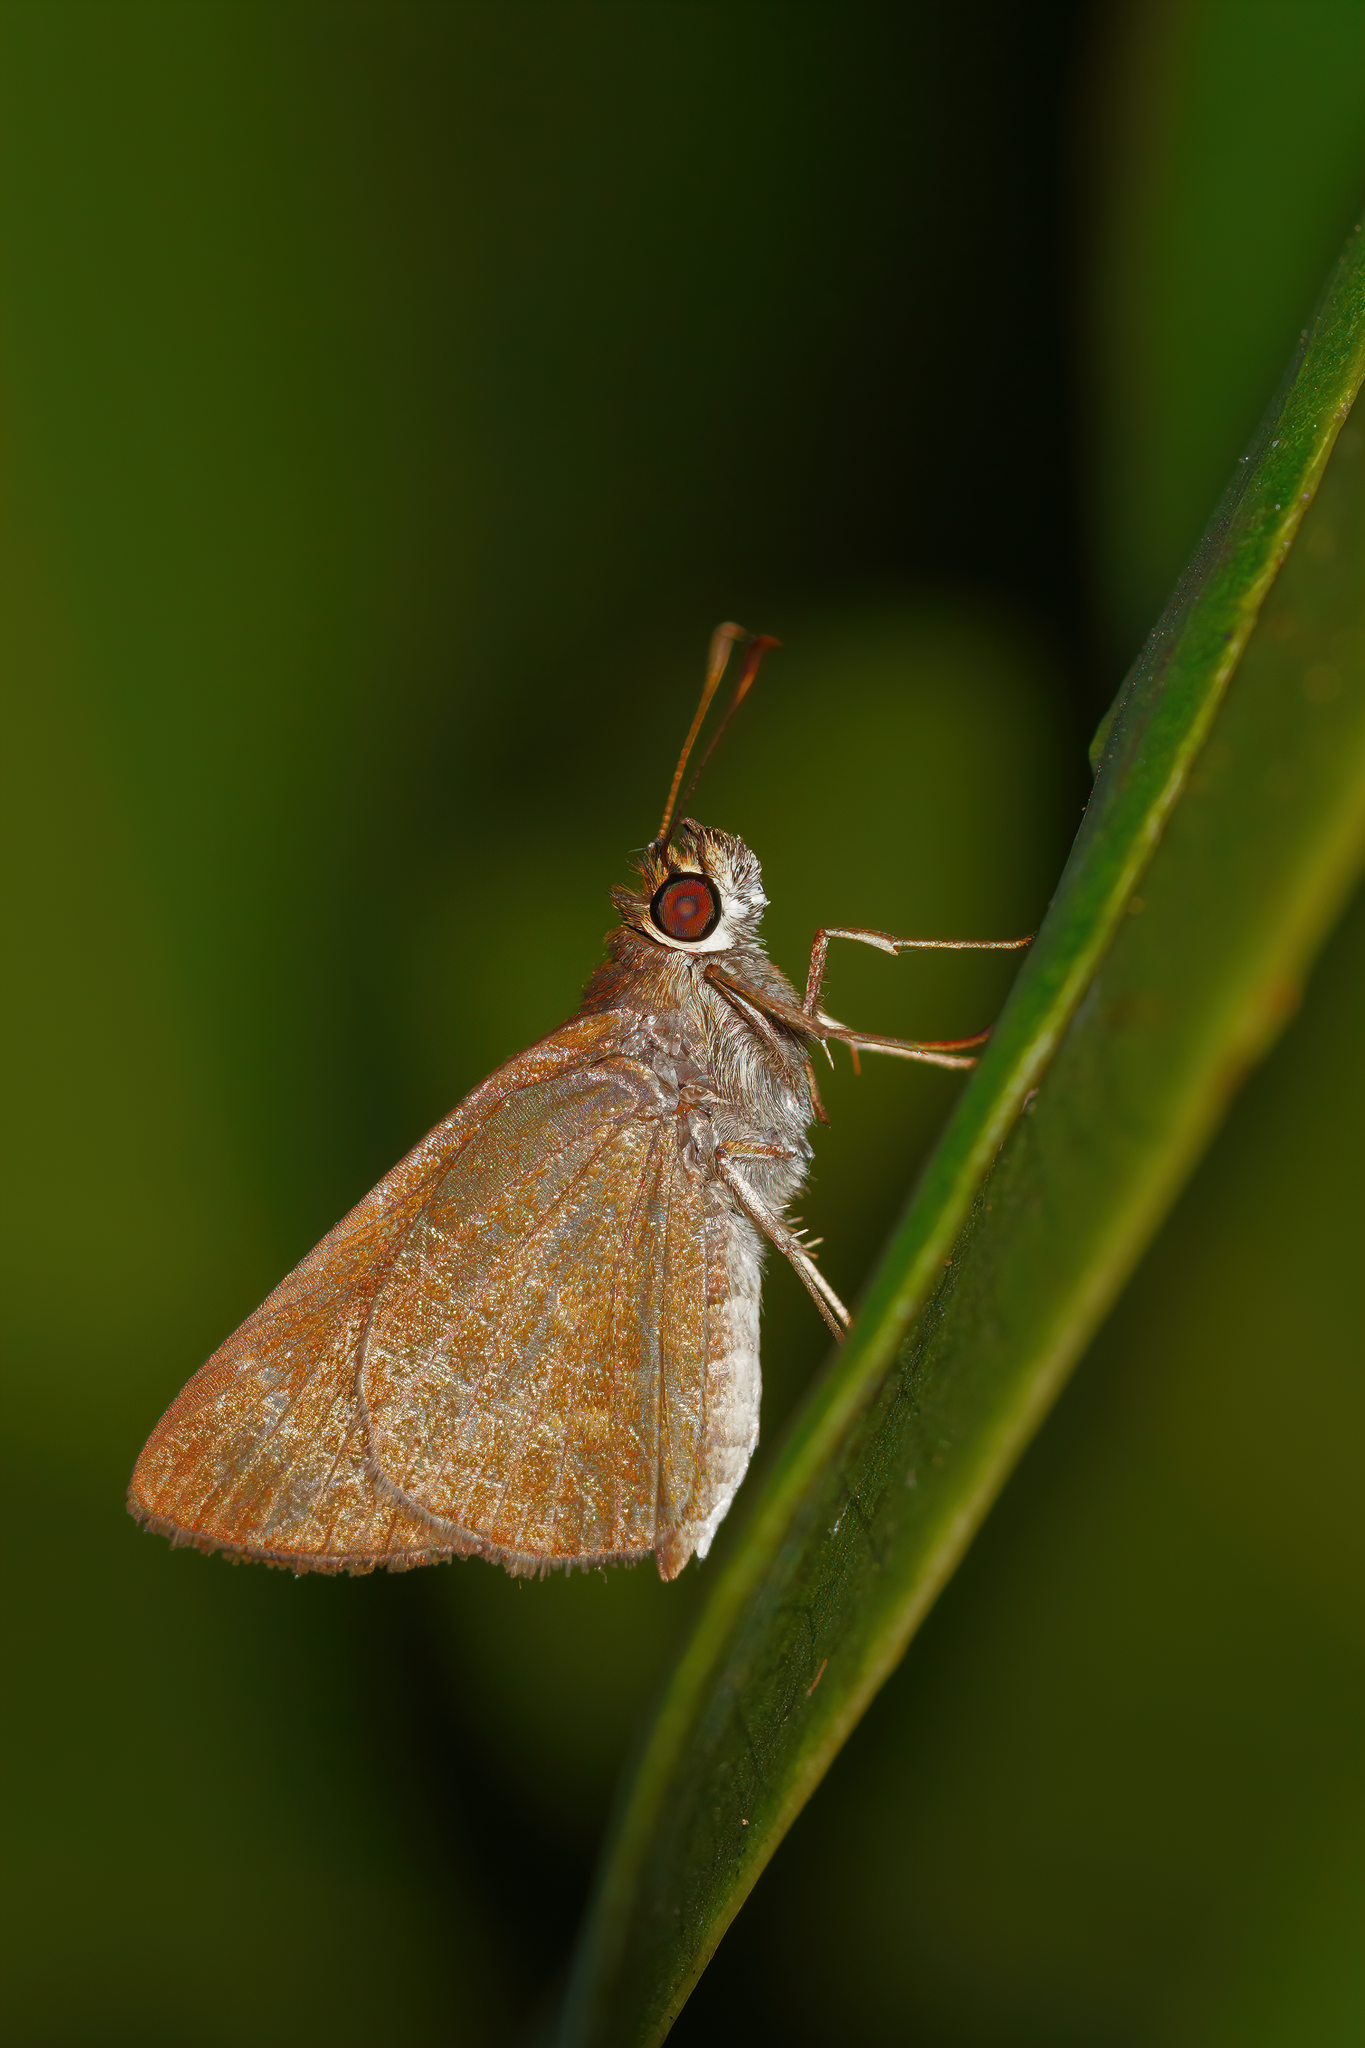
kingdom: Animalia
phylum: Arthropoda
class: Insecta
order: Lepidoptera
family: Hesperiidae
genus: Cymaenes
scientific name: Cymaenes tripunctus
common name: Dingy dotted skipper
